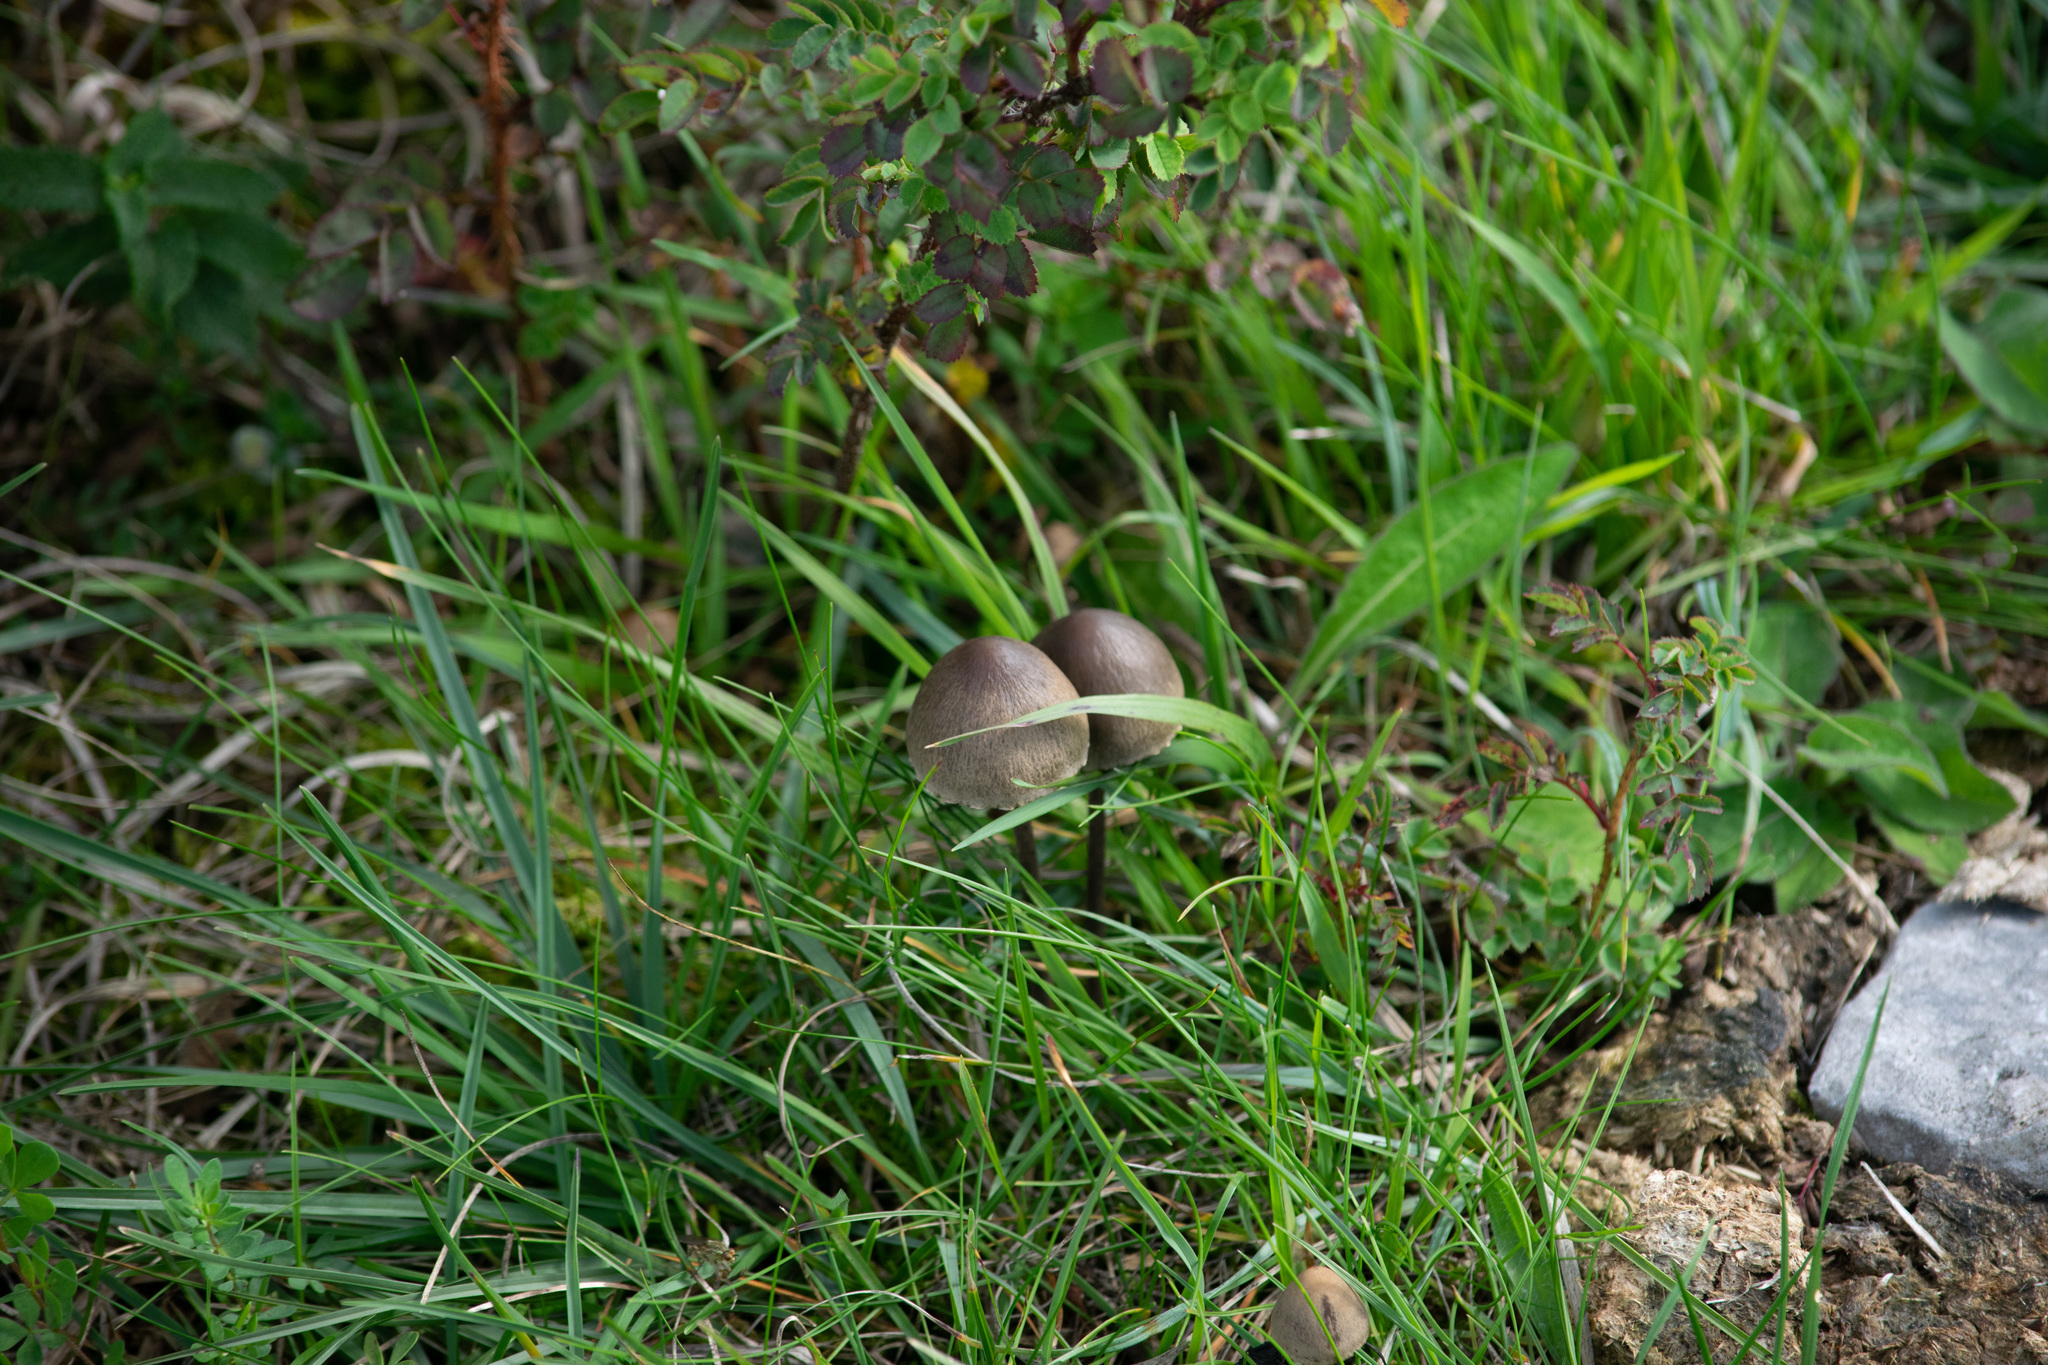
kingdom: Fungi
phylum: Basidiomycota
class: Agaricomycetes
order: Agaricales
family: Bolbitiaceae
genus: Panaeolus
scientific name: Panaeolus papilionaceus
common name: Petticoat mottlegill
